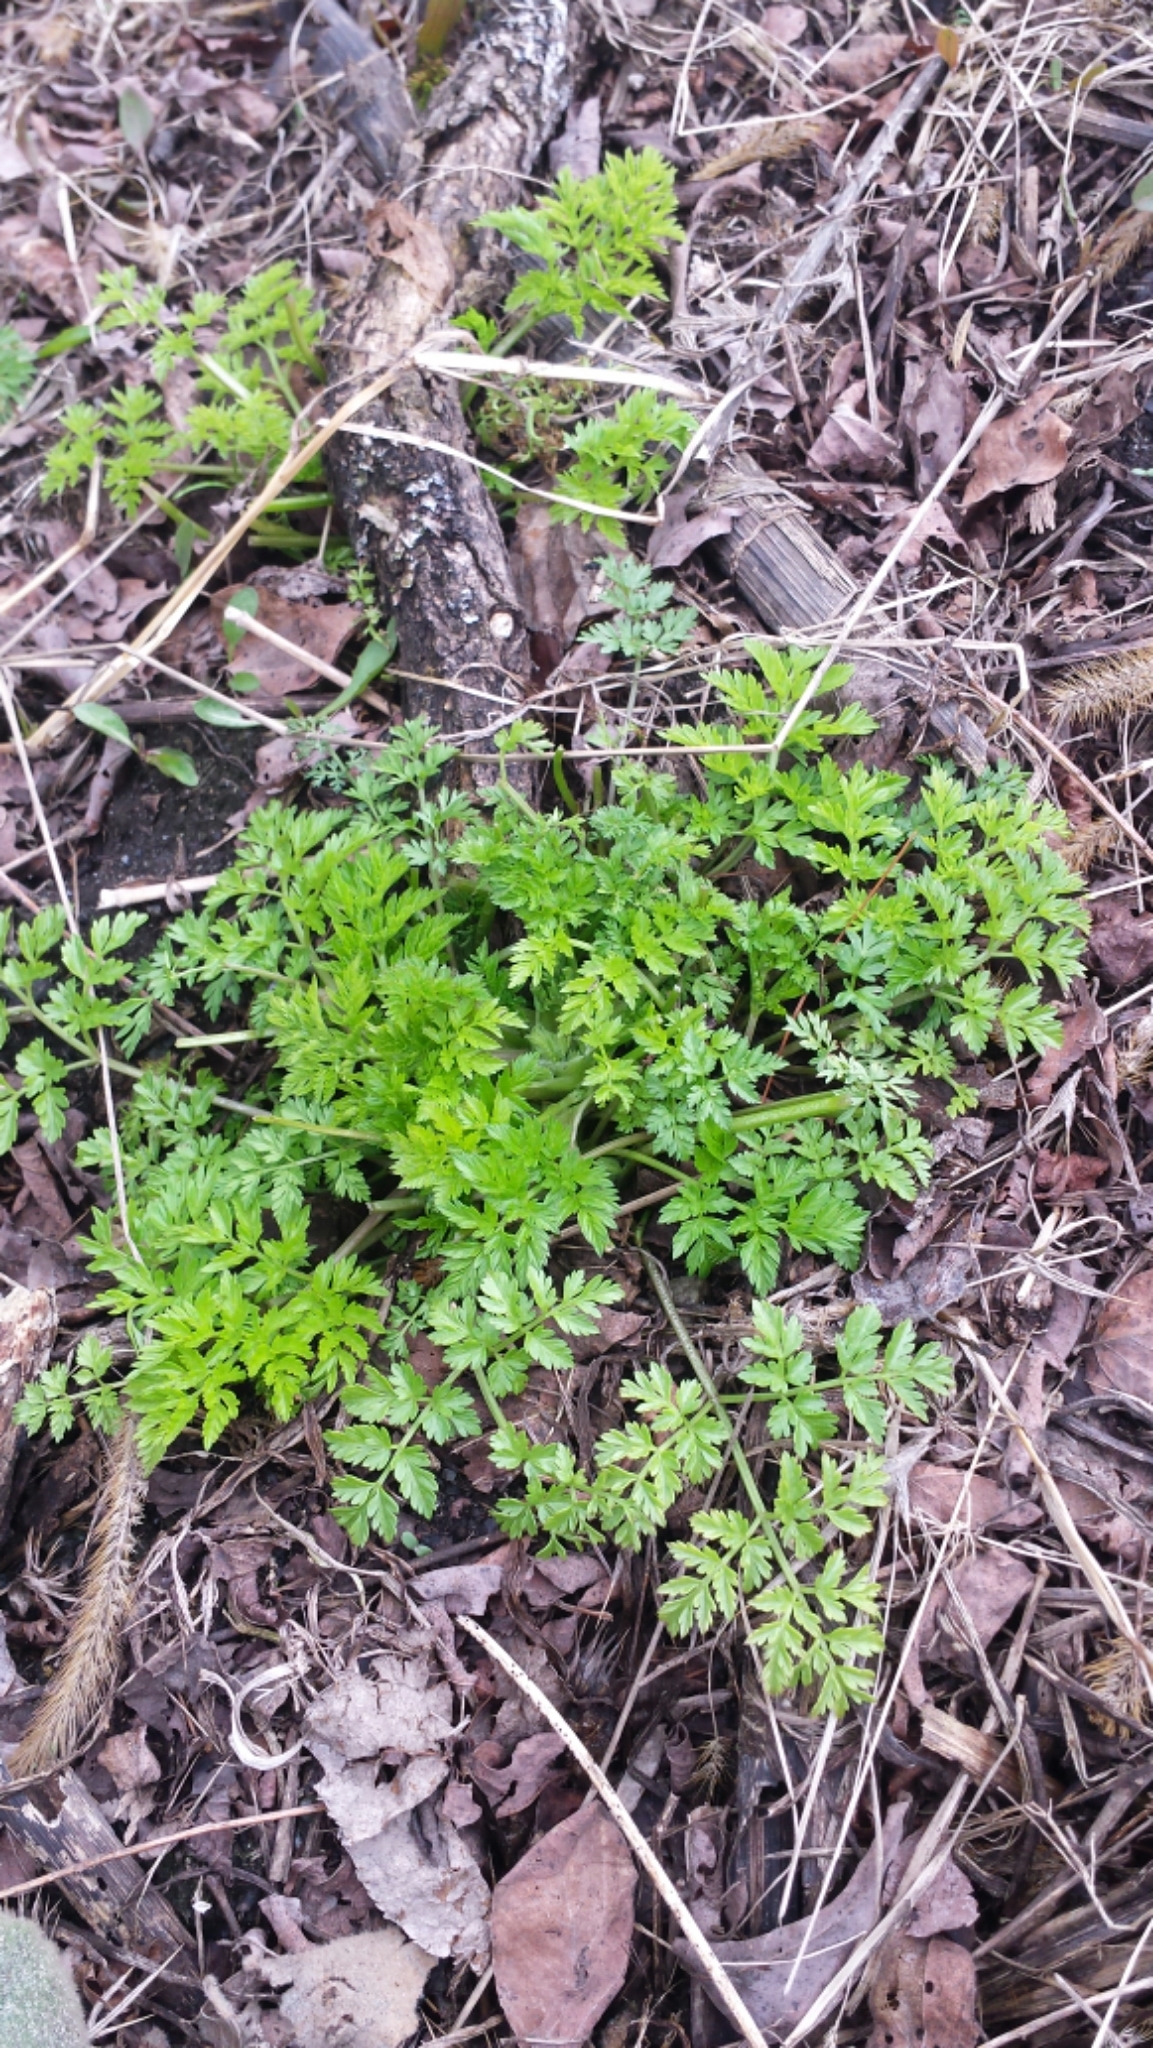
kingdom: Plantae
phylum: Tracheophyta
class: Magnoliopsida
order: Apiales
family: Apiaceae
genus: Anthriscus
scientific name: Anthriscus sylvestris
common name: Cow parsley
